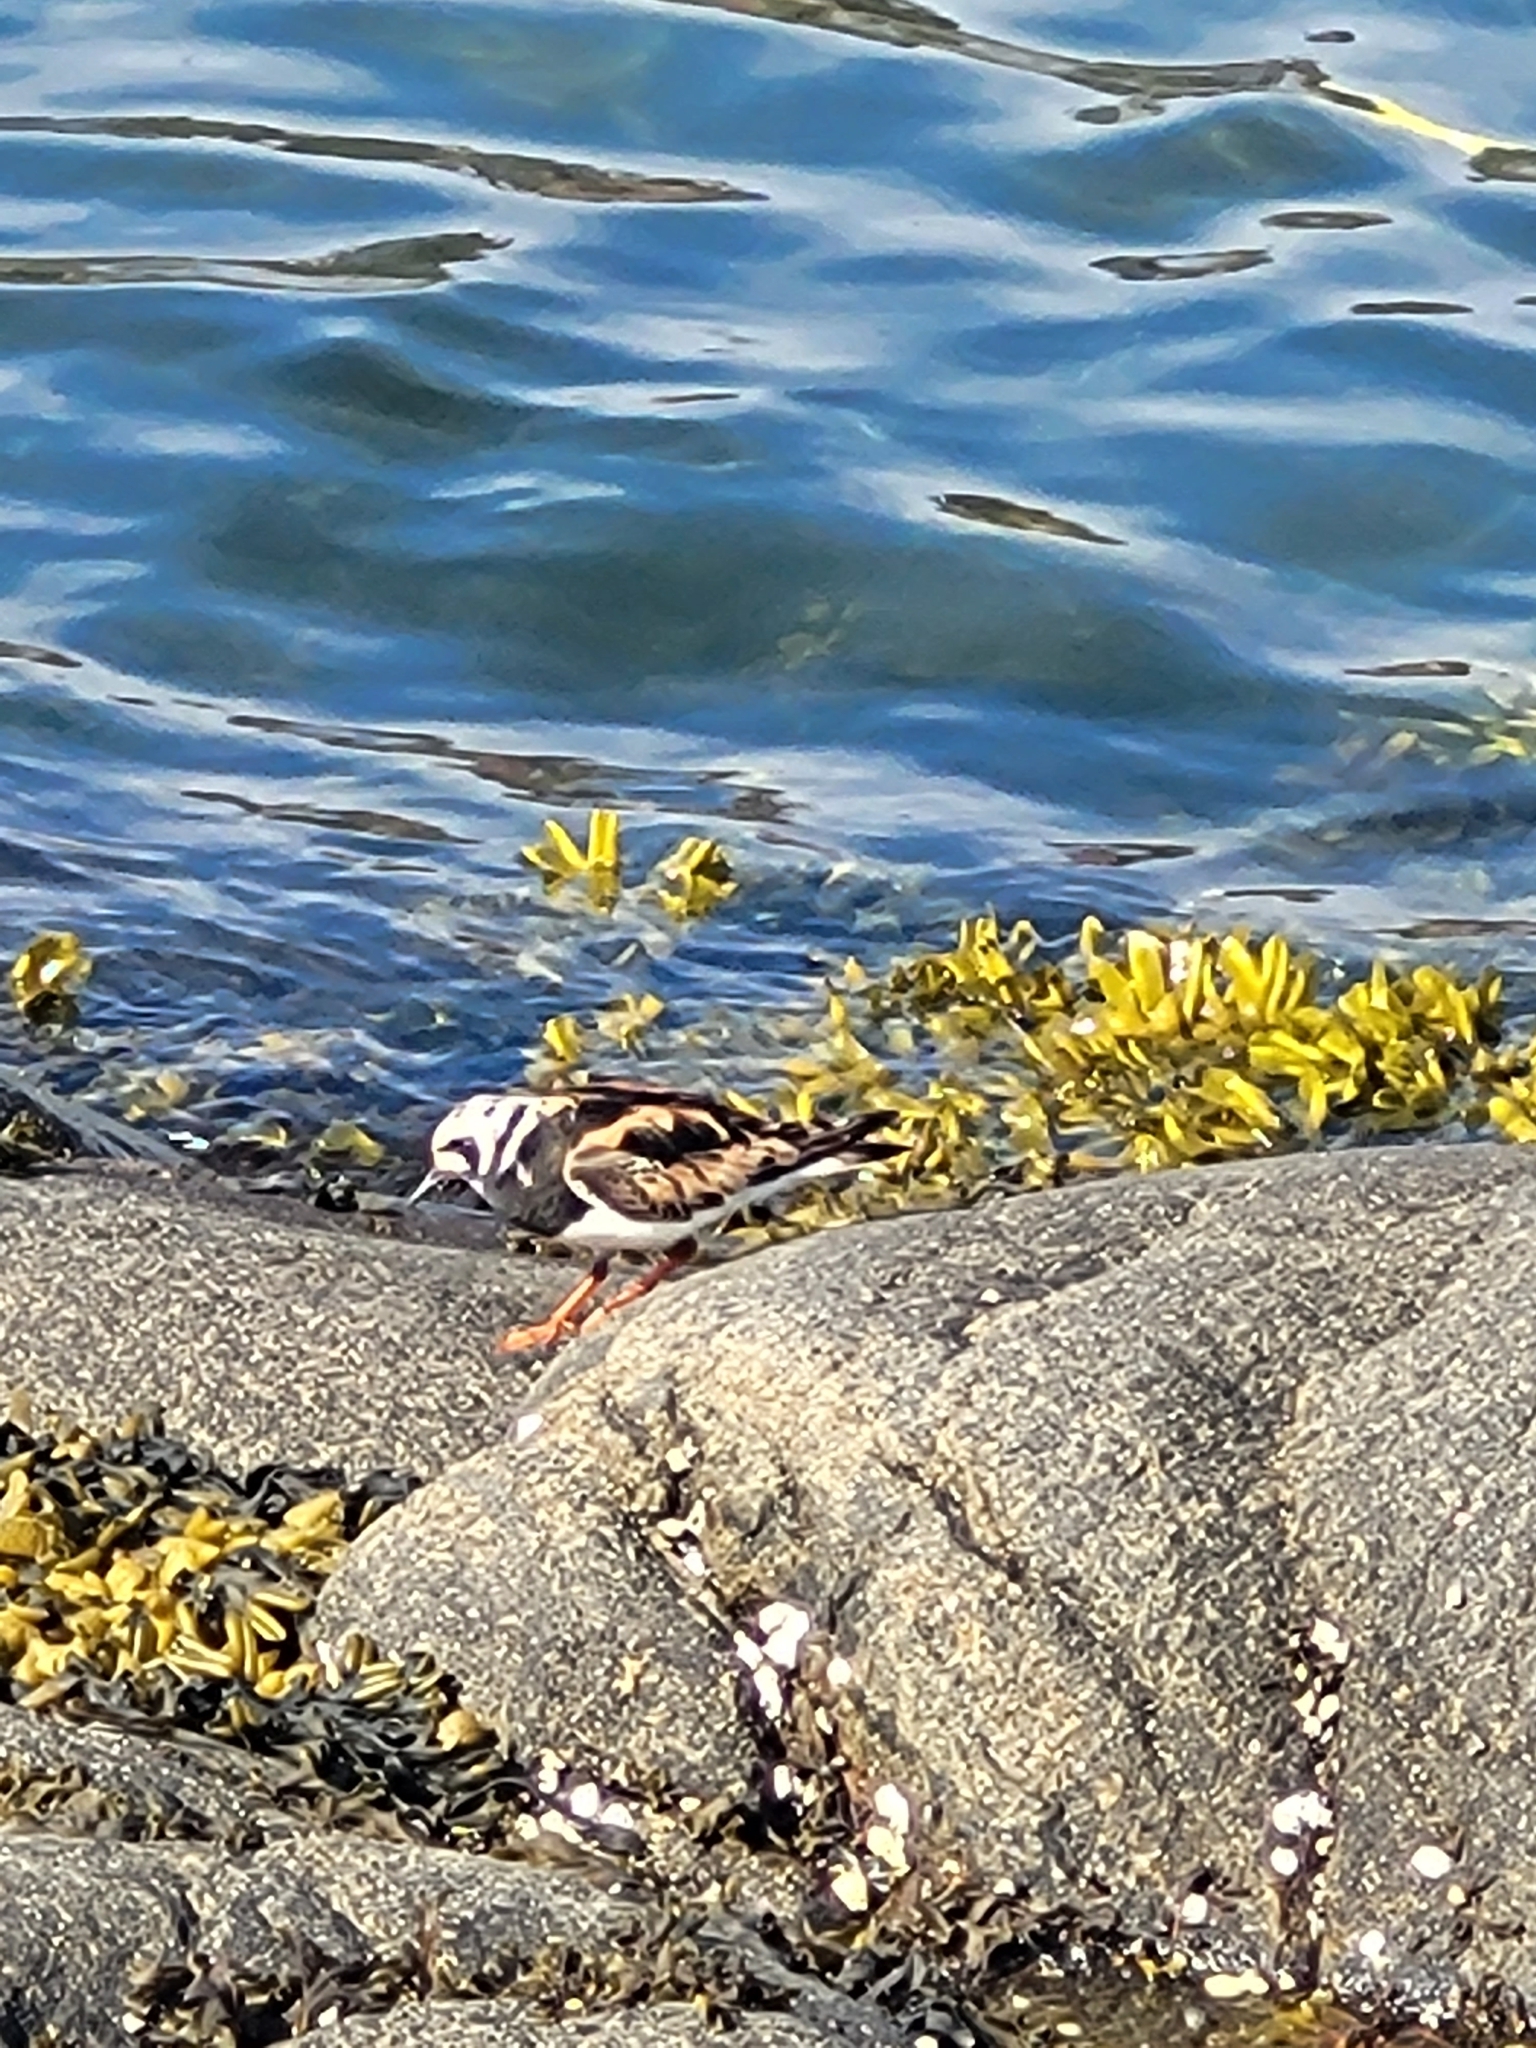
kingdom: Animalia
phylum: Chordata
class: Aves
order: Charadriiformes
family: Scolopacidae
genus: Arenaria
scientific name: Arenaria interpres
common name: Ruddy turnstone
